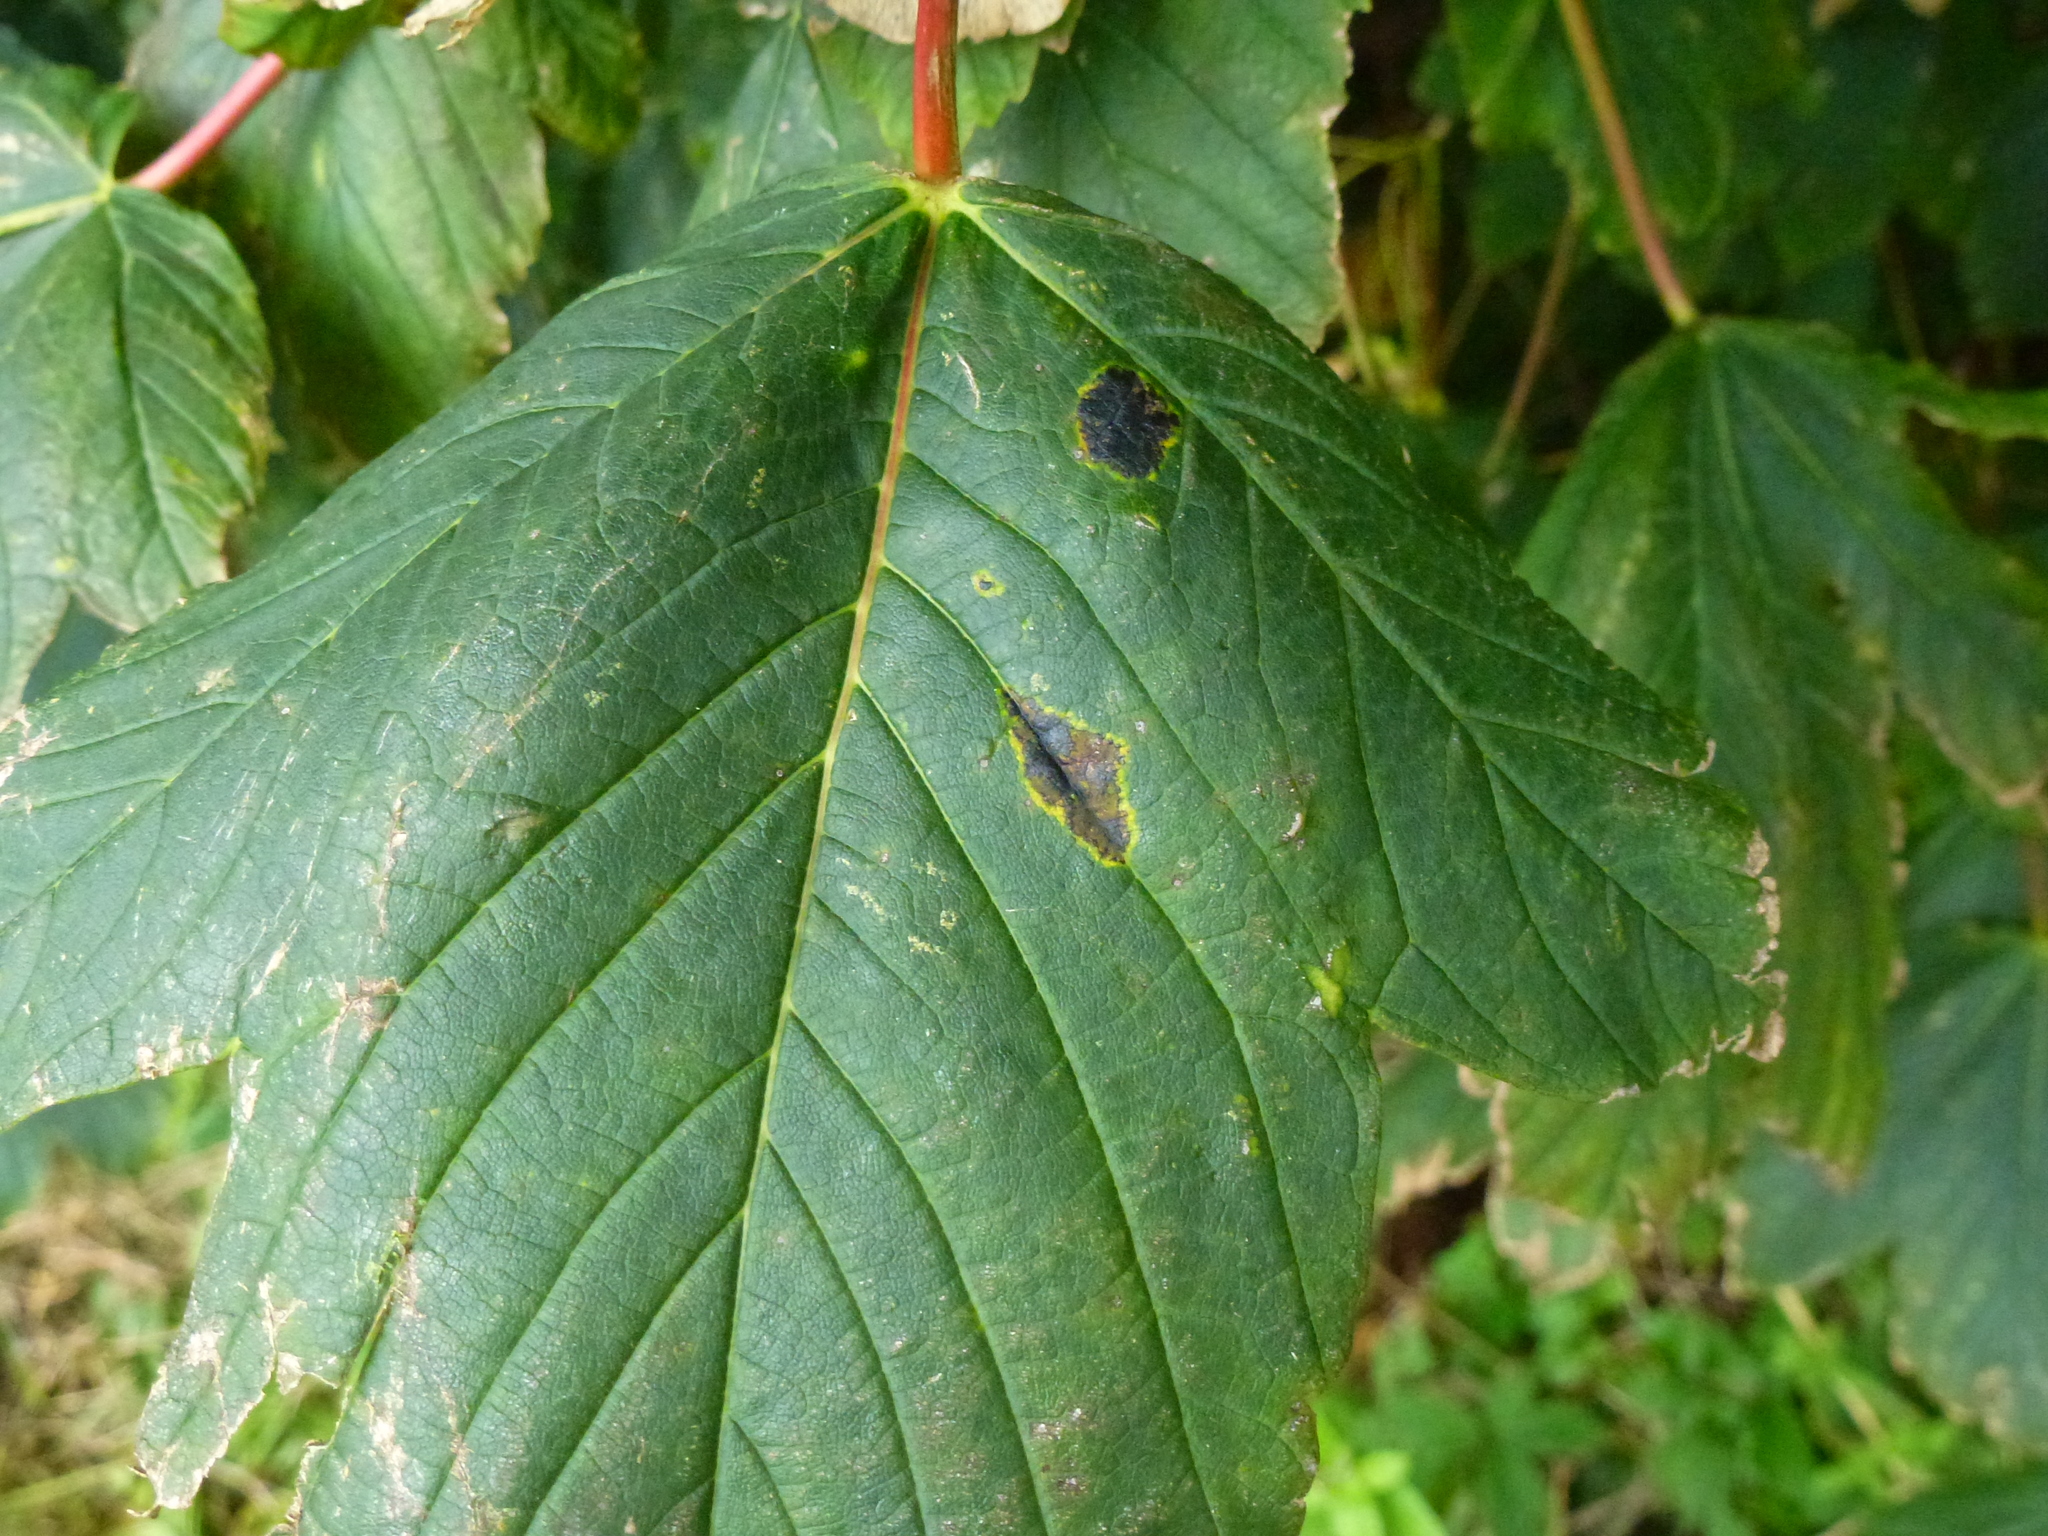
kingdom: Fungi
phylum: Ascomycota
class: Leotiomycetes
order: Rhytismatales
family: Rhytismataceae
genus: Rhytisma
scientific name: Rhytisma acerinum
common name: European tar spot
